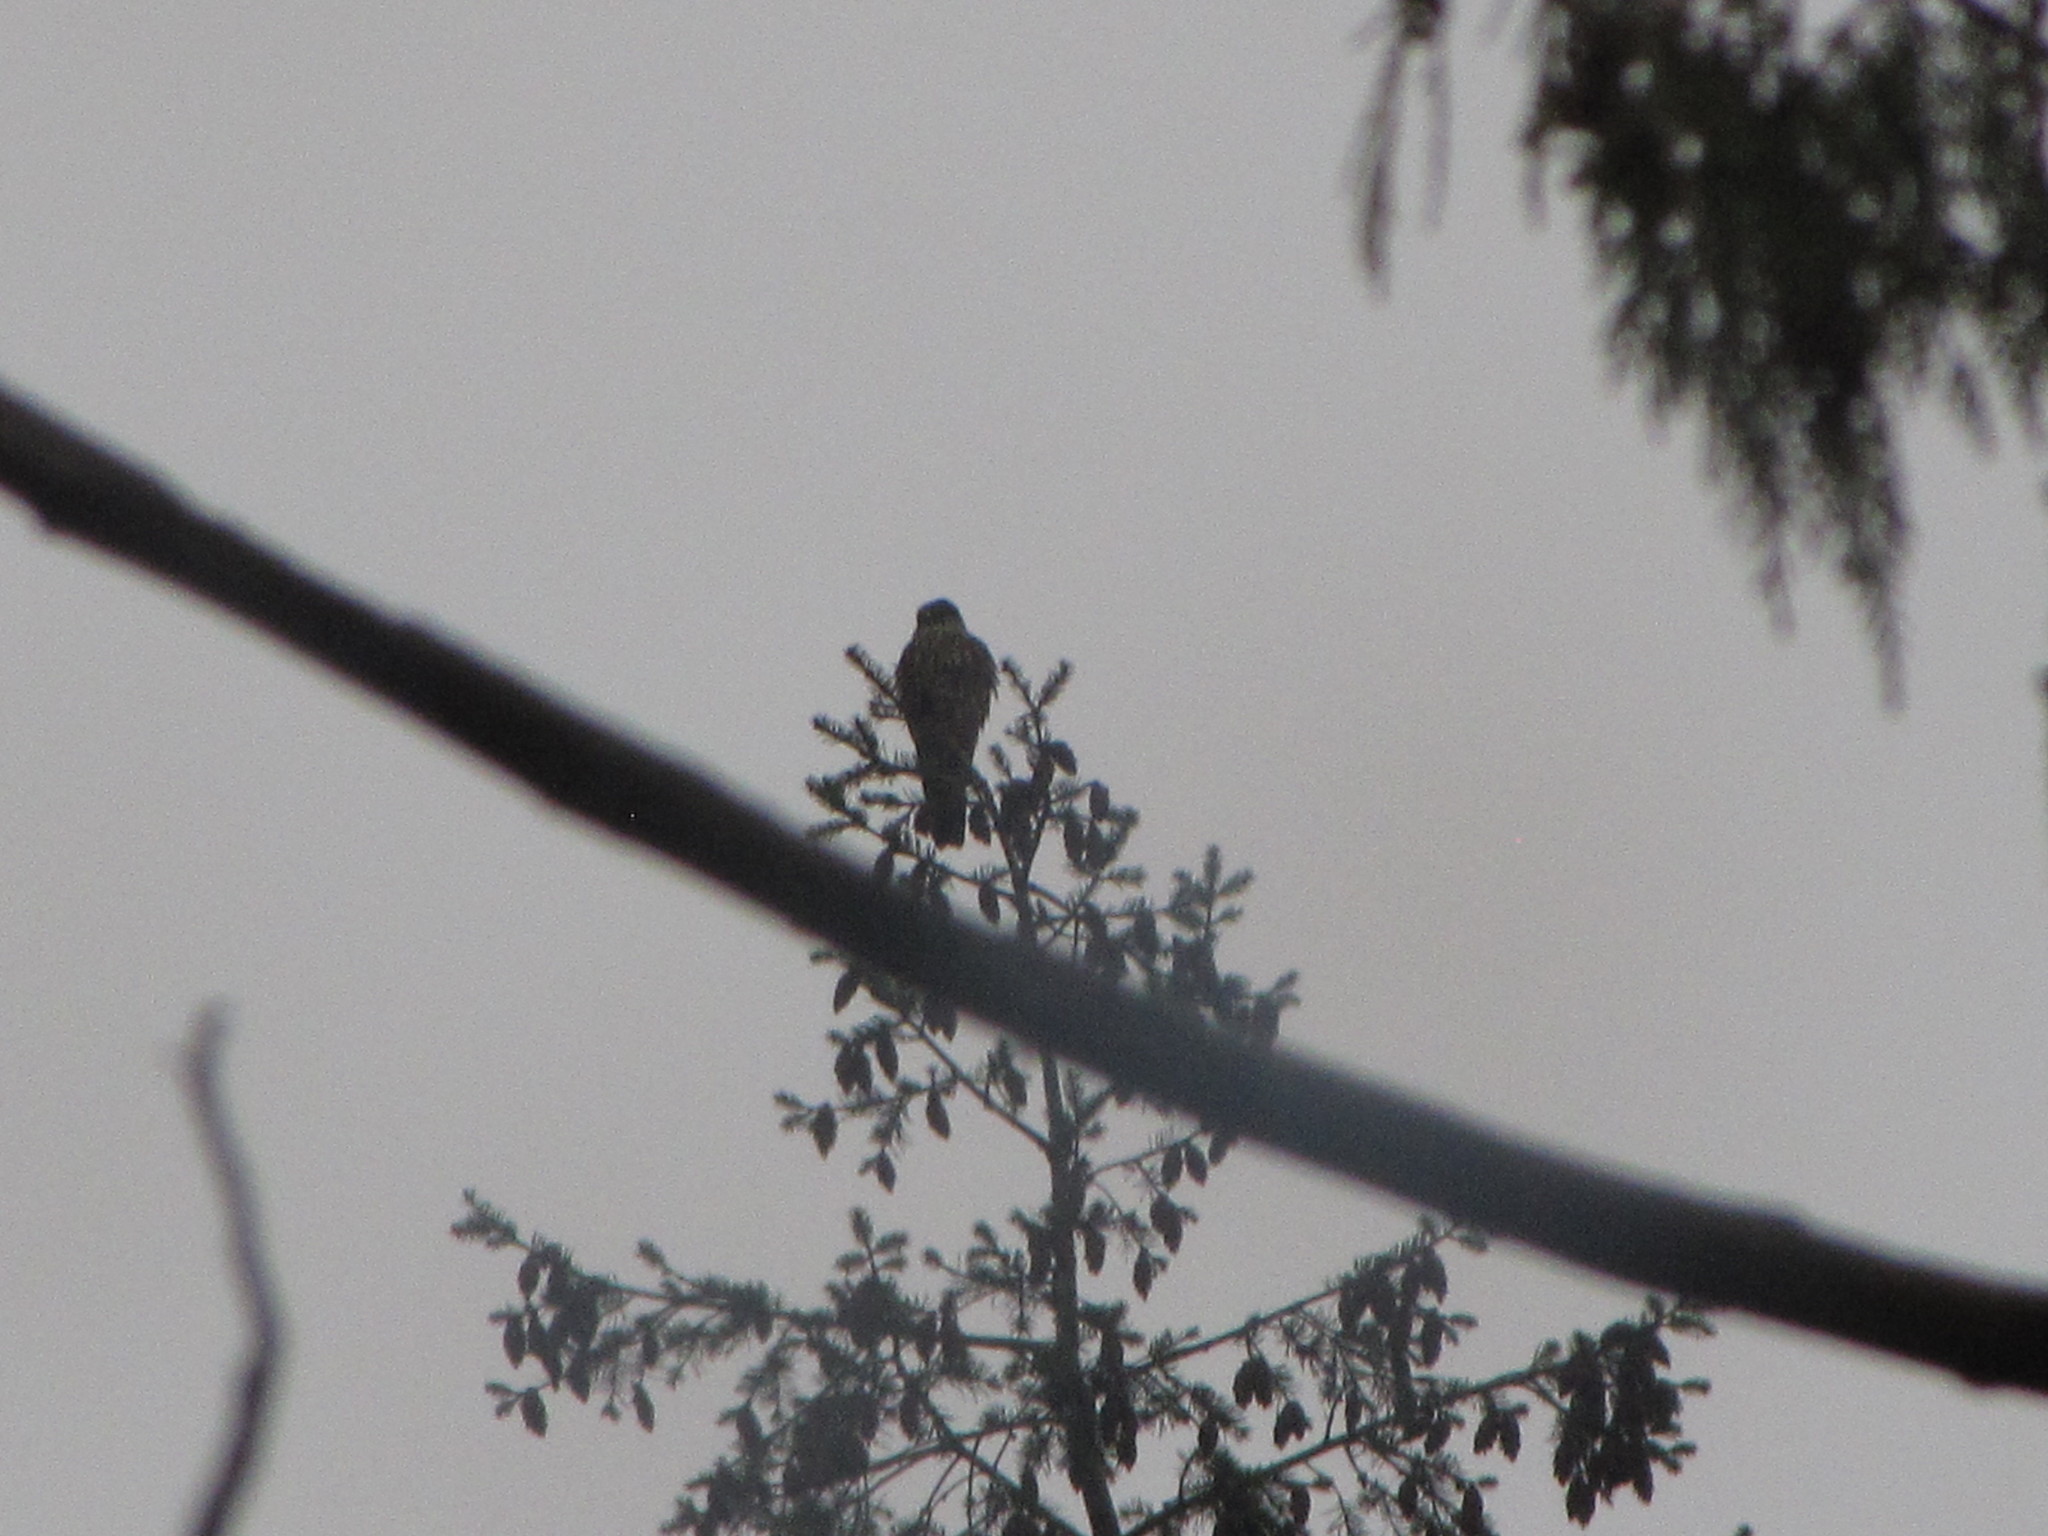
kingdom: Animalia
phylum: Chordata
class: Aves
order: Falconiformes
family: Falconidae
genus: Falco
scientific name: Falco columbarius
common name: Merlin
